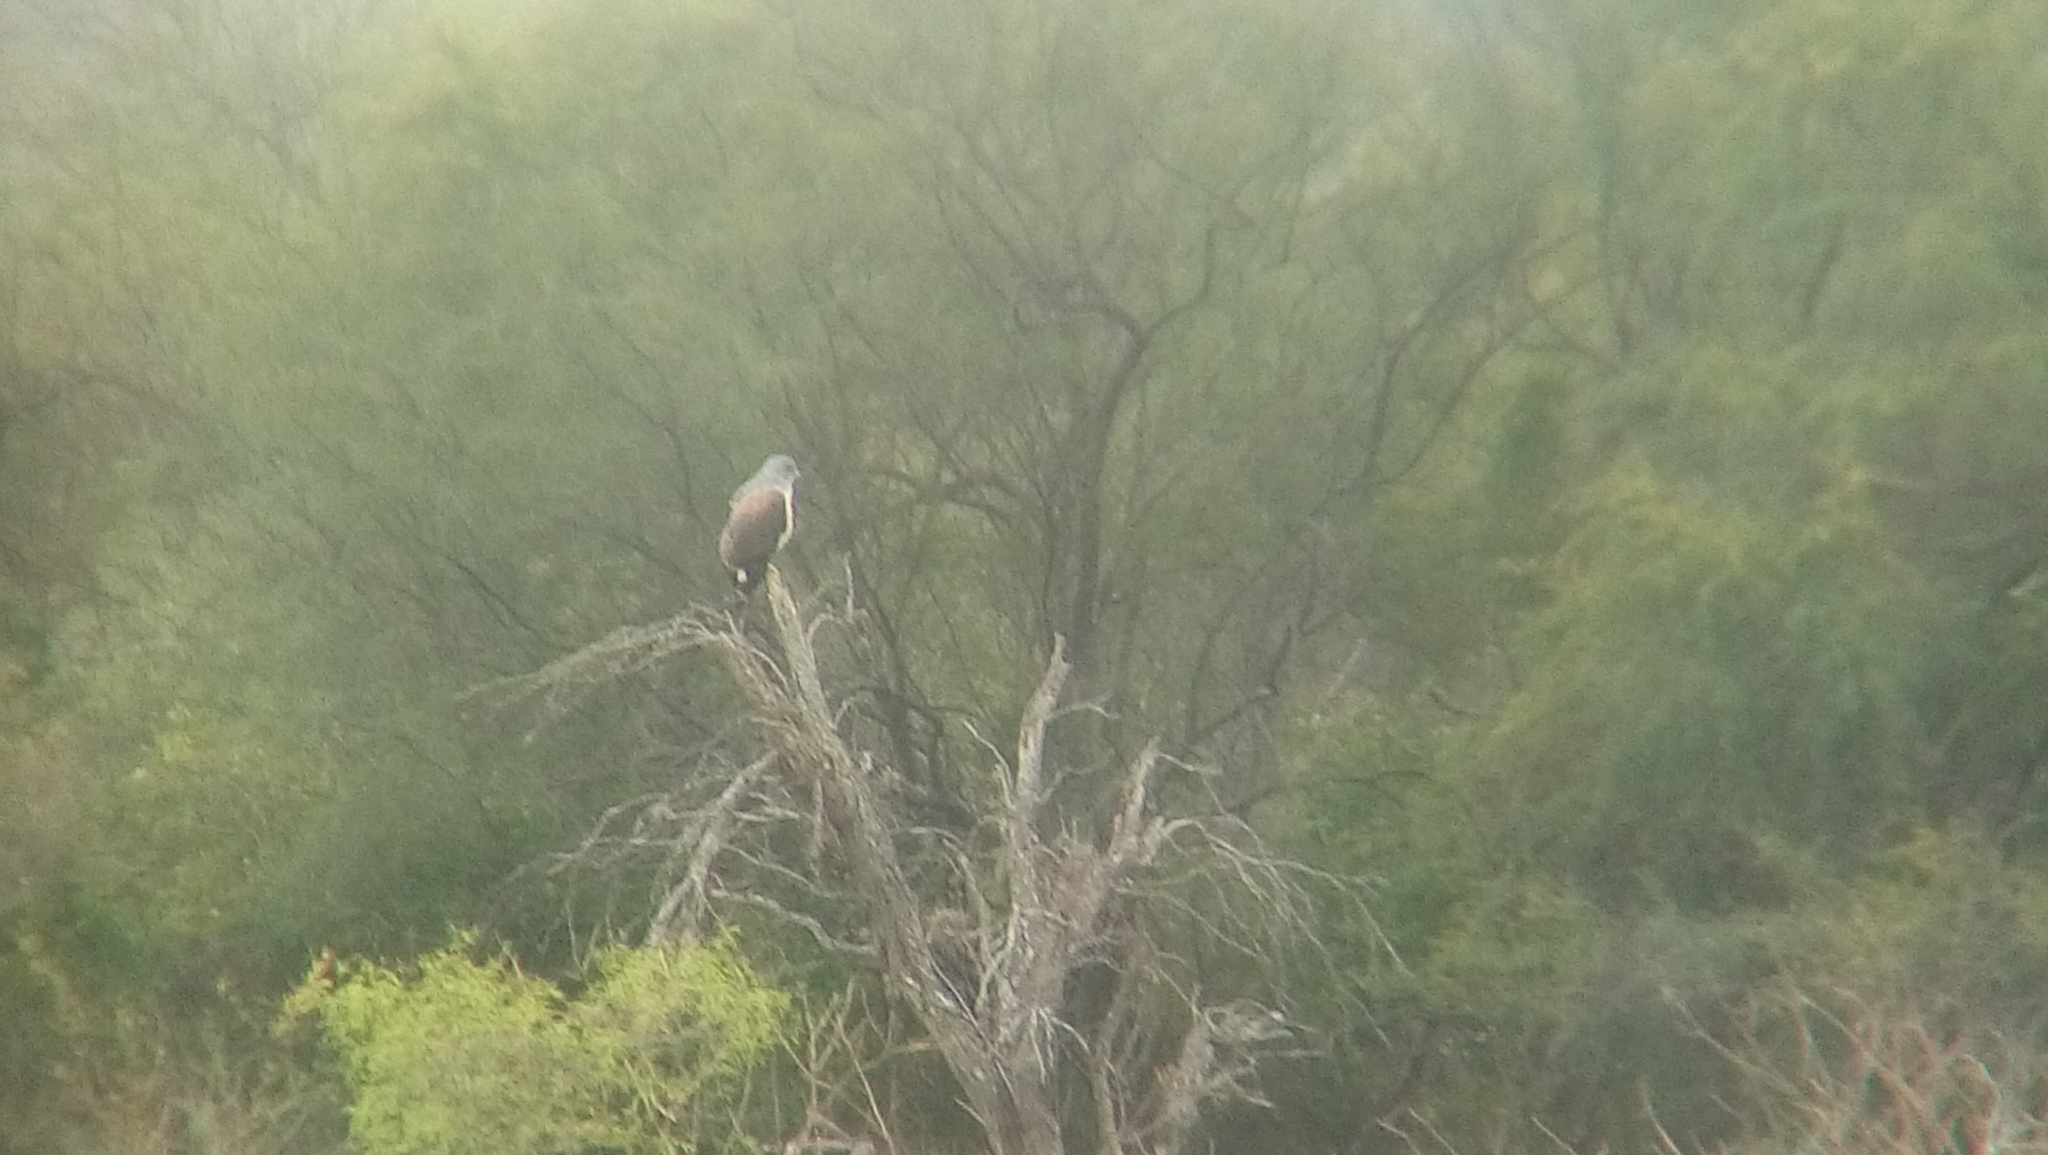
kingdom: Animalia
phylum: Chordata
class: Aves
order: Accipitriformes
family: Accipitridae
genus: Buteo
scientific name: Buteo albicaudatus
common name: White-tailed hawk
